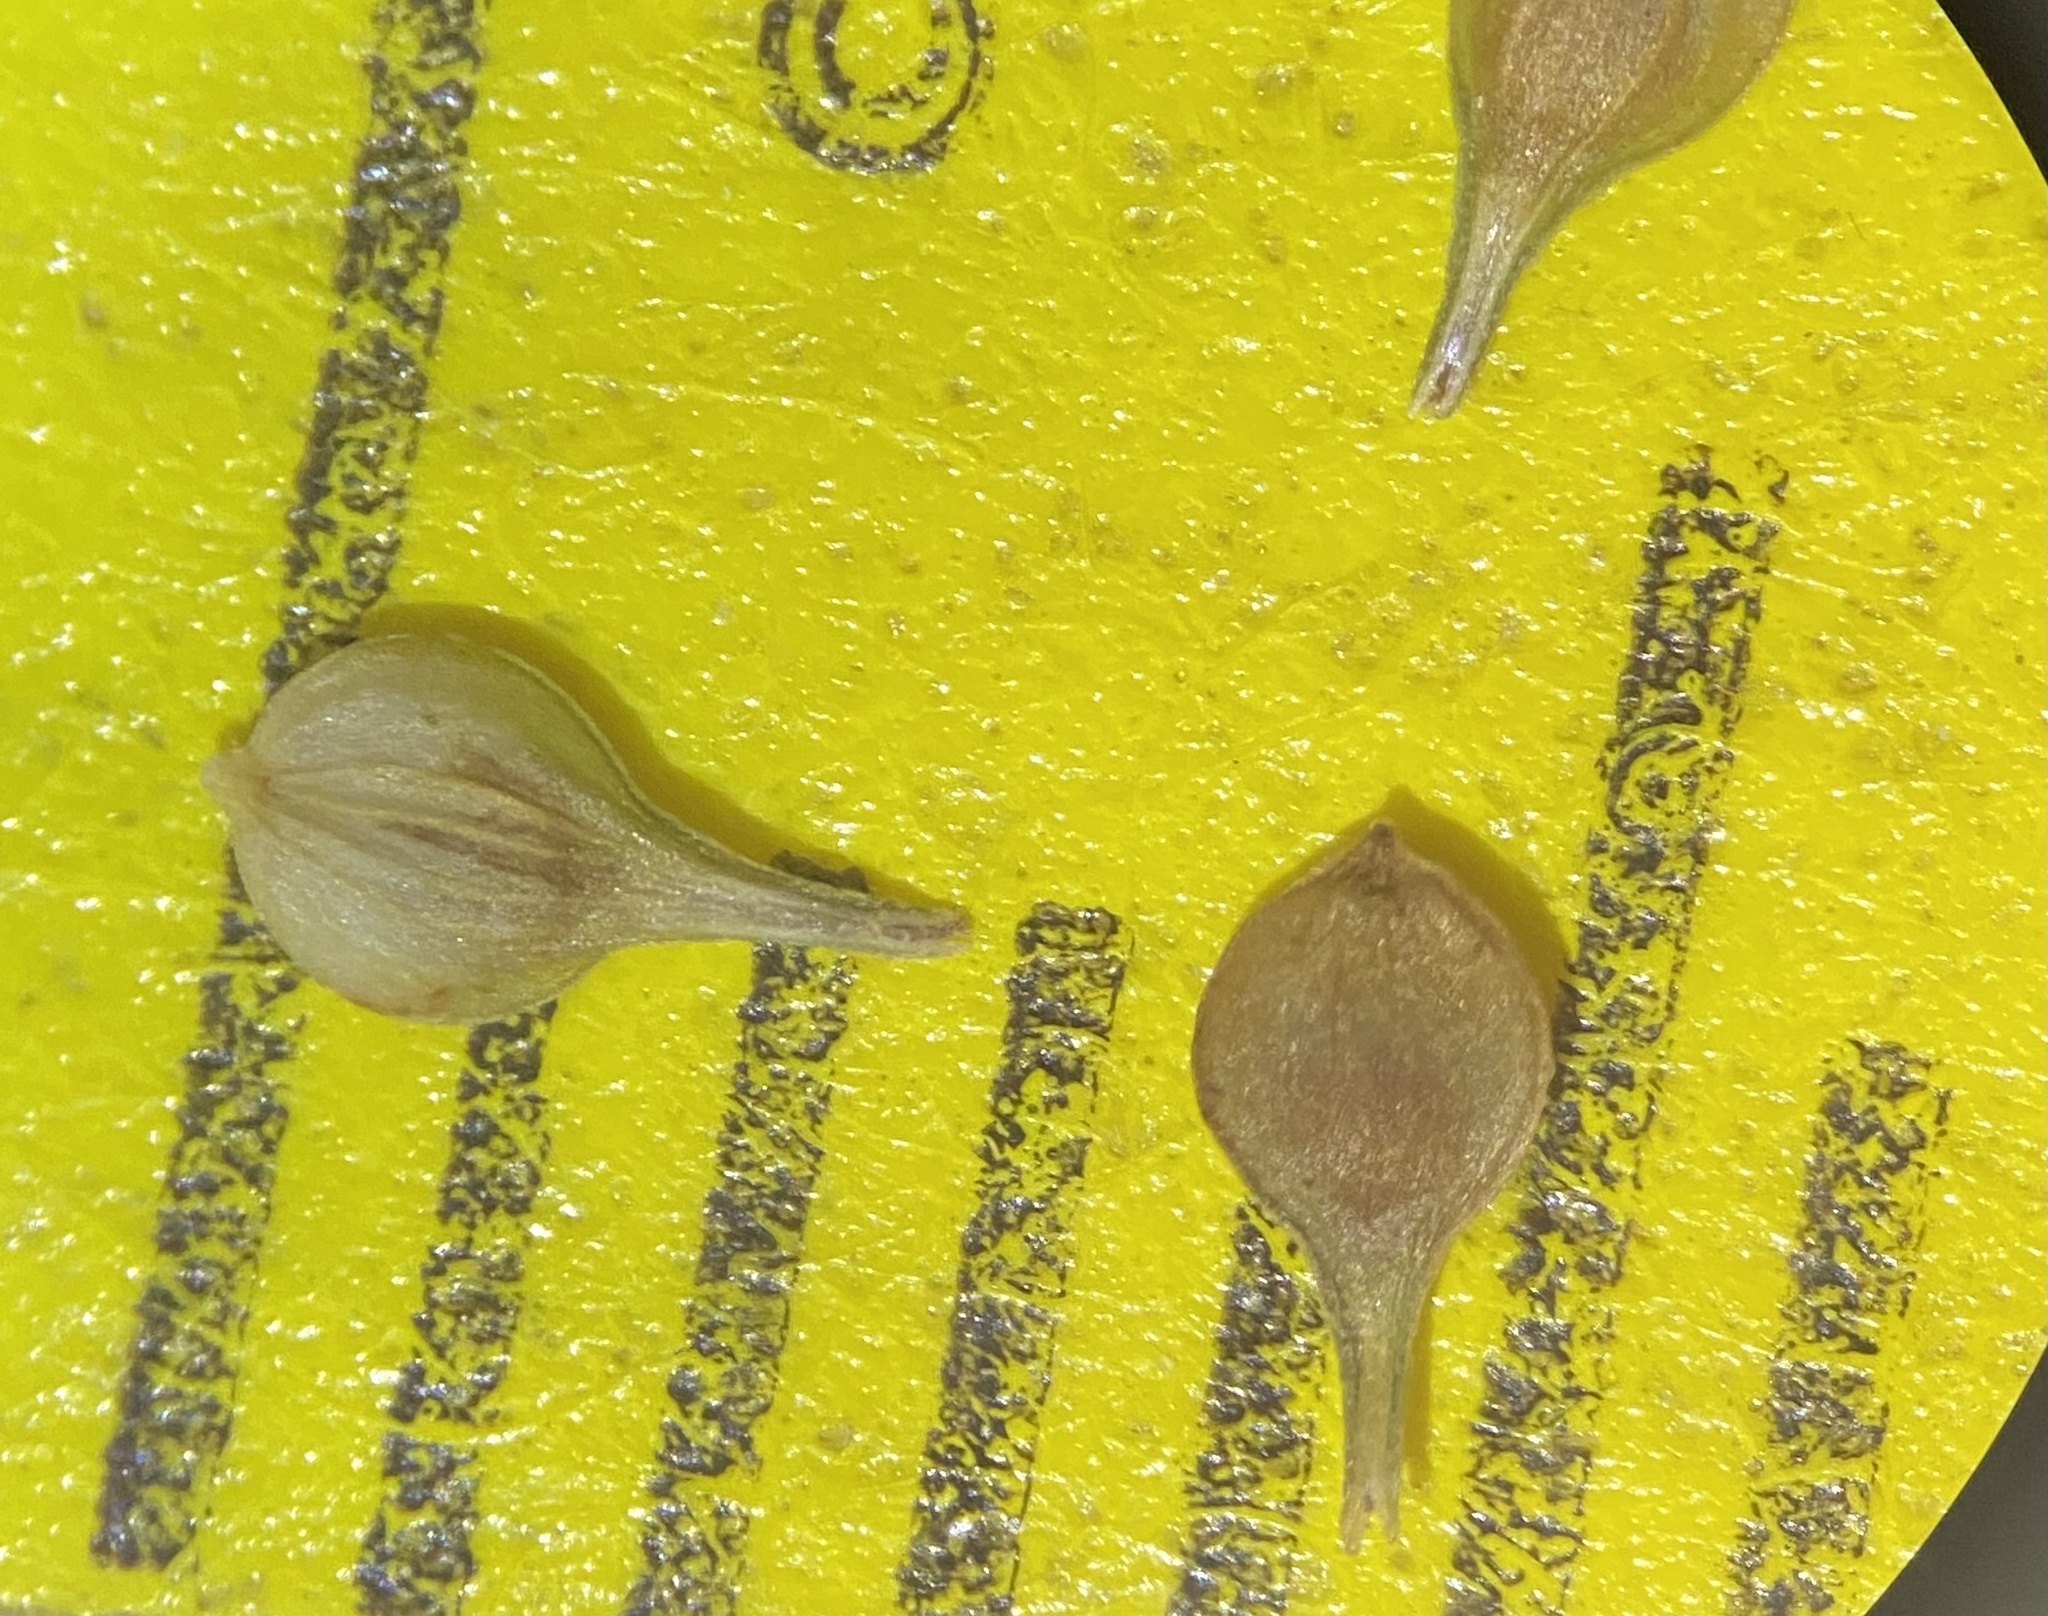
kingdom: Plantae
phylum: Tracheophyta
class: Liliopsida
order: Poales
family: Cyperaceae
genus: Carex
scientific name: Carex vulpinoidea
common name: American fox-sedge
